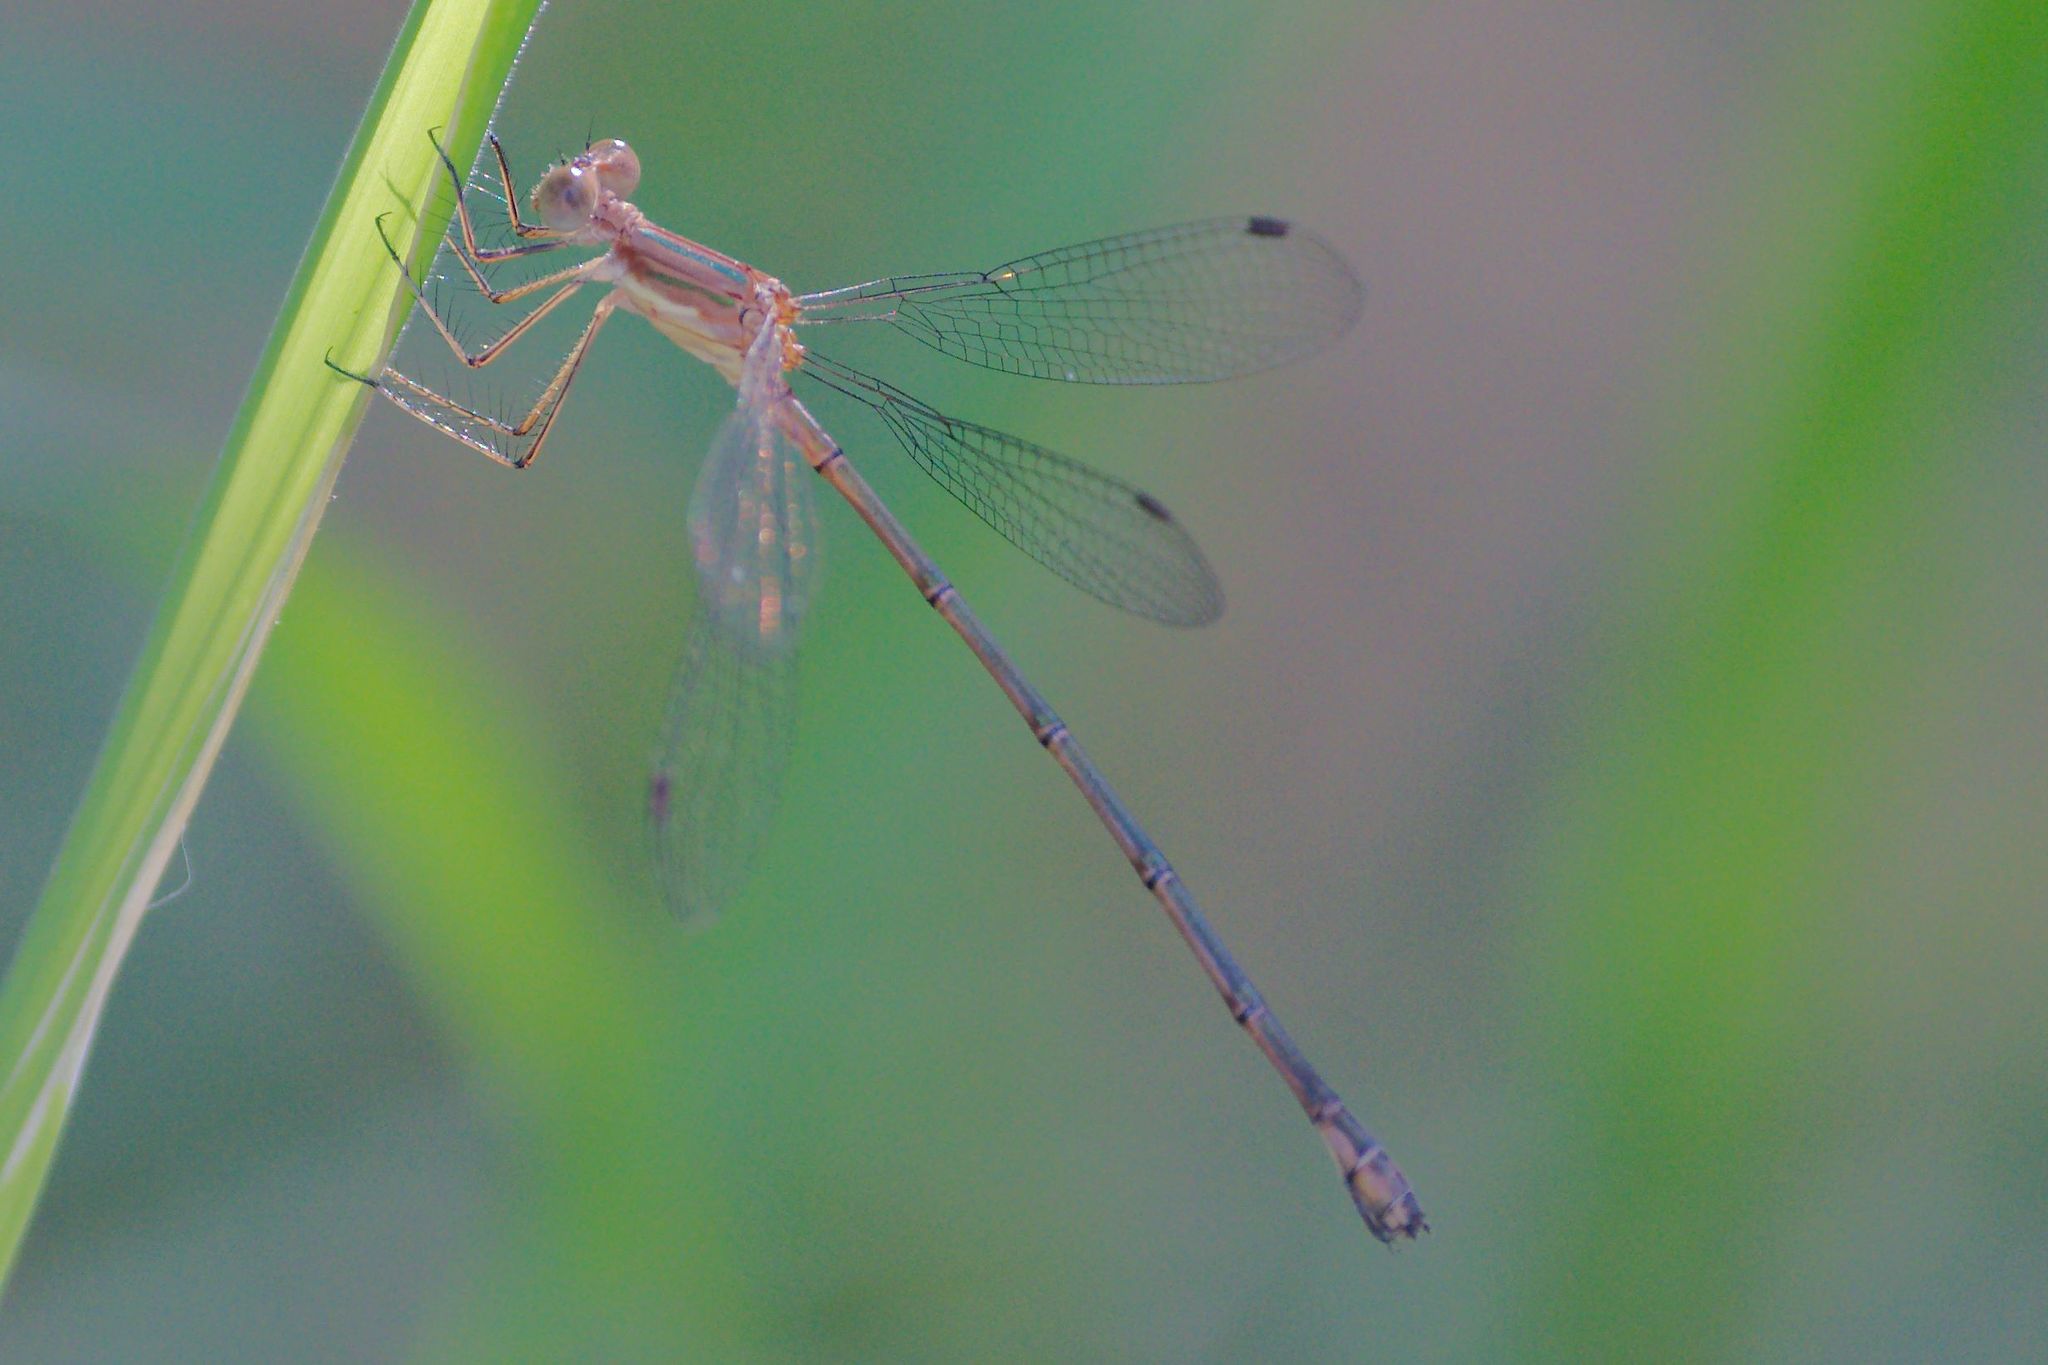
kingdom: Animalia
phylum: Arthropoda
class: Insecta
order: Odonata
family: Lestidae
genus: Lestes
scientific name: Lestes forficula
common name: Rainpool spreadwing
